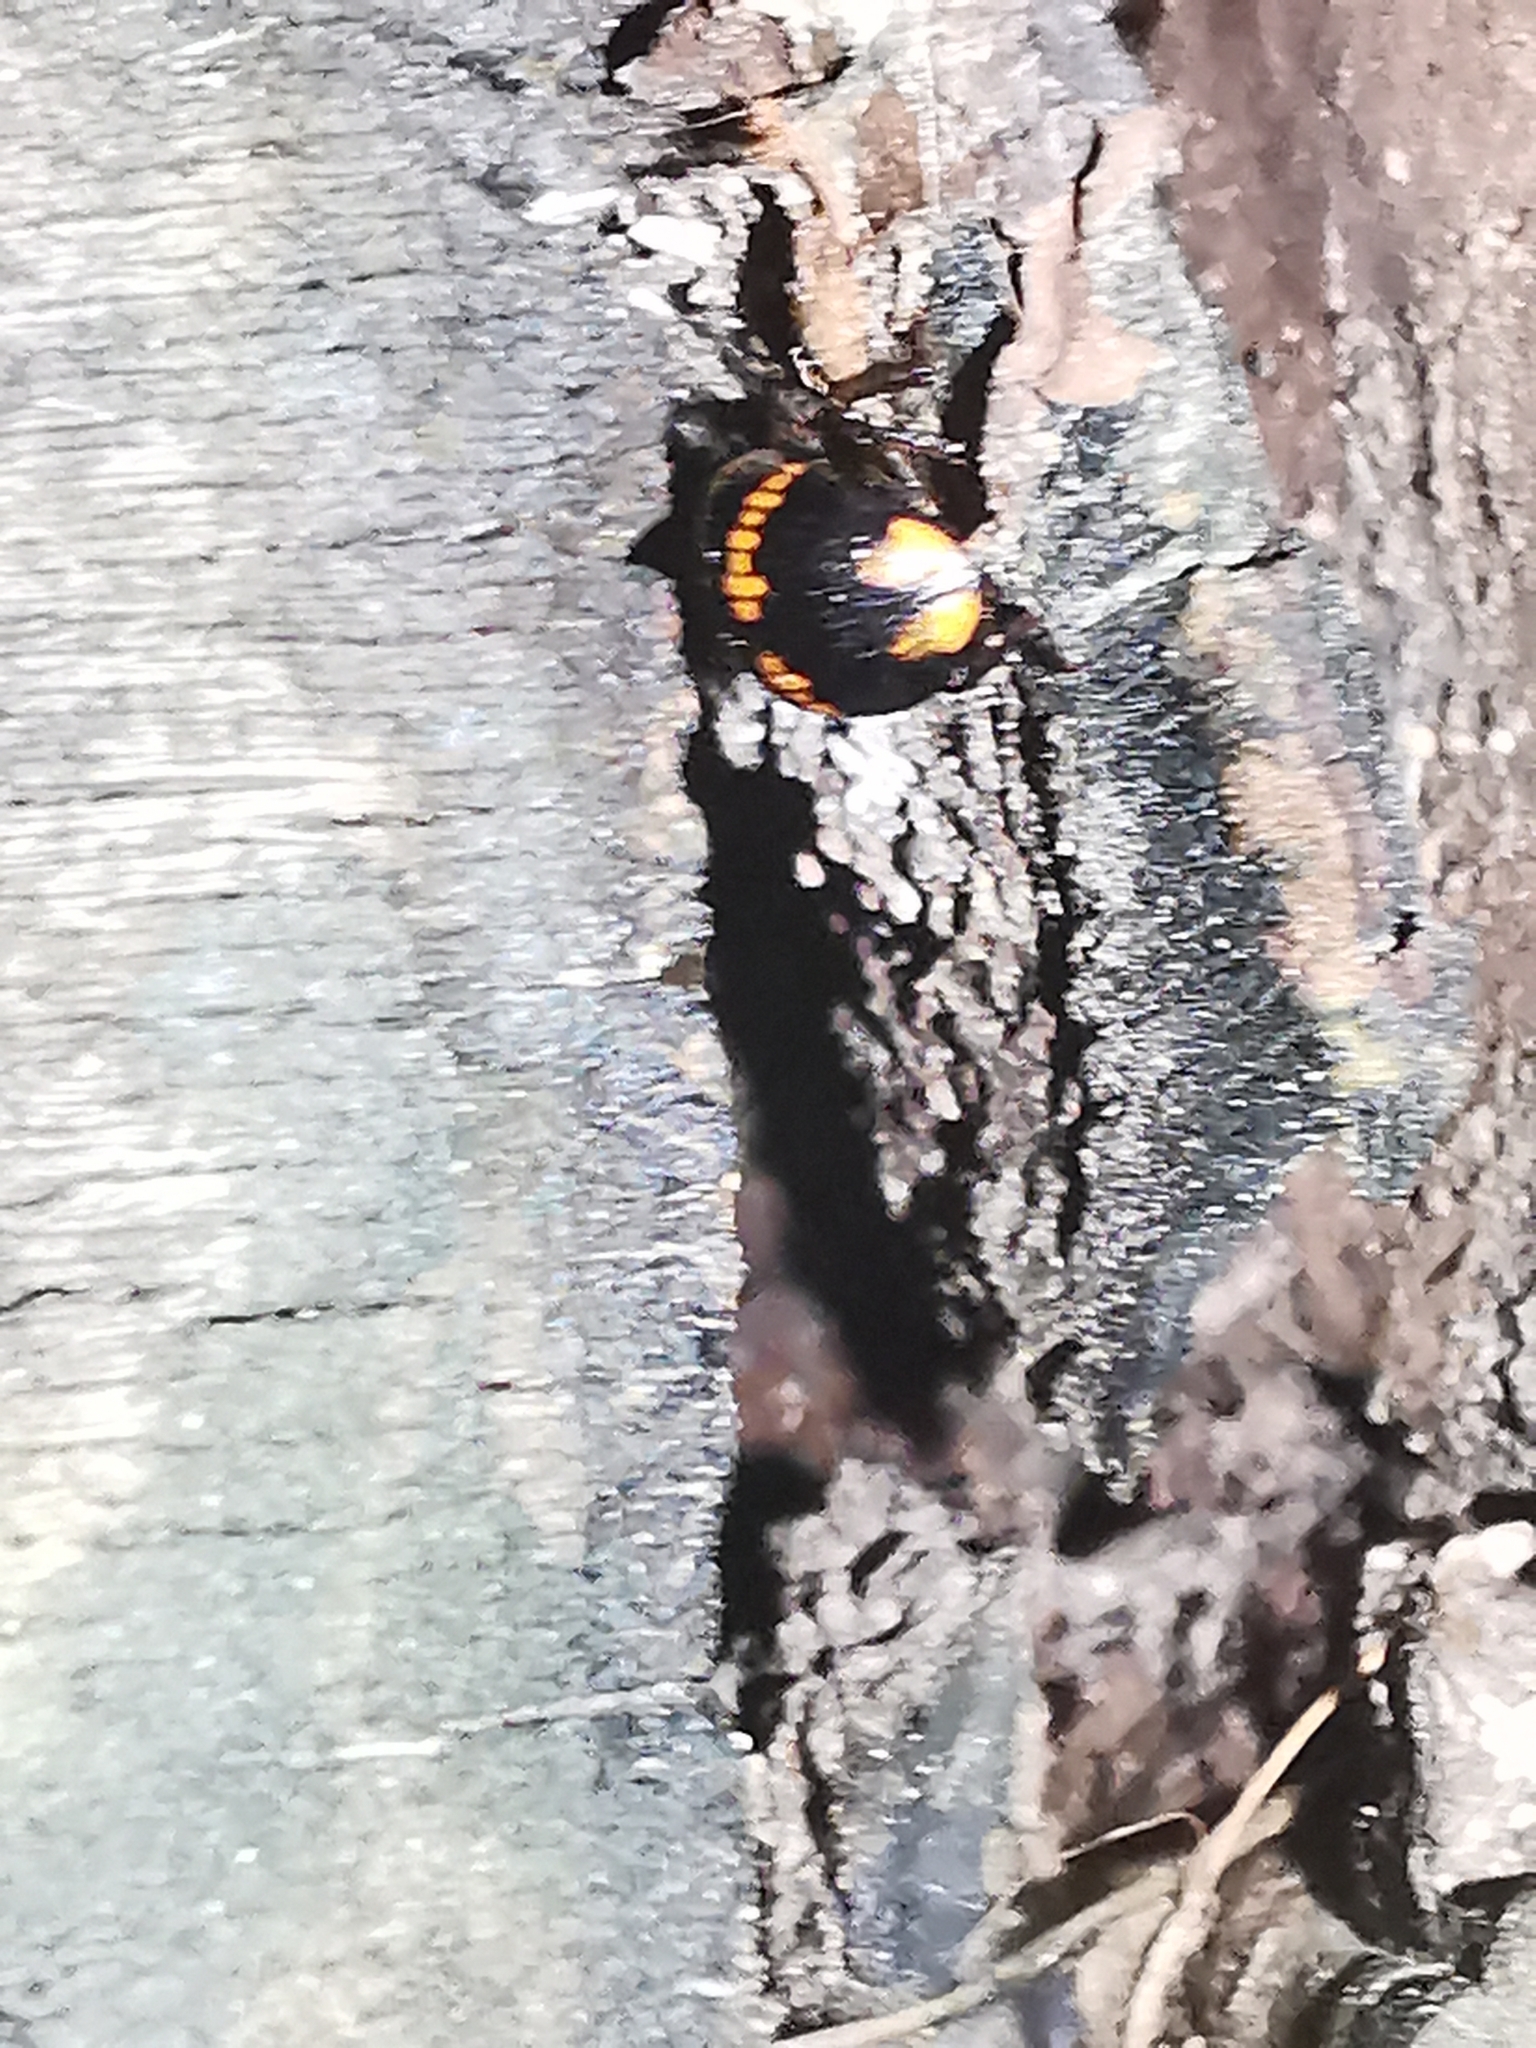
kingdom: Animalia
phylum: Arthropoda
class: Insecta
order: Coleoptera
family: Tenebrionidae
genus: Diaperis
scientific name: Diaperis boleti
